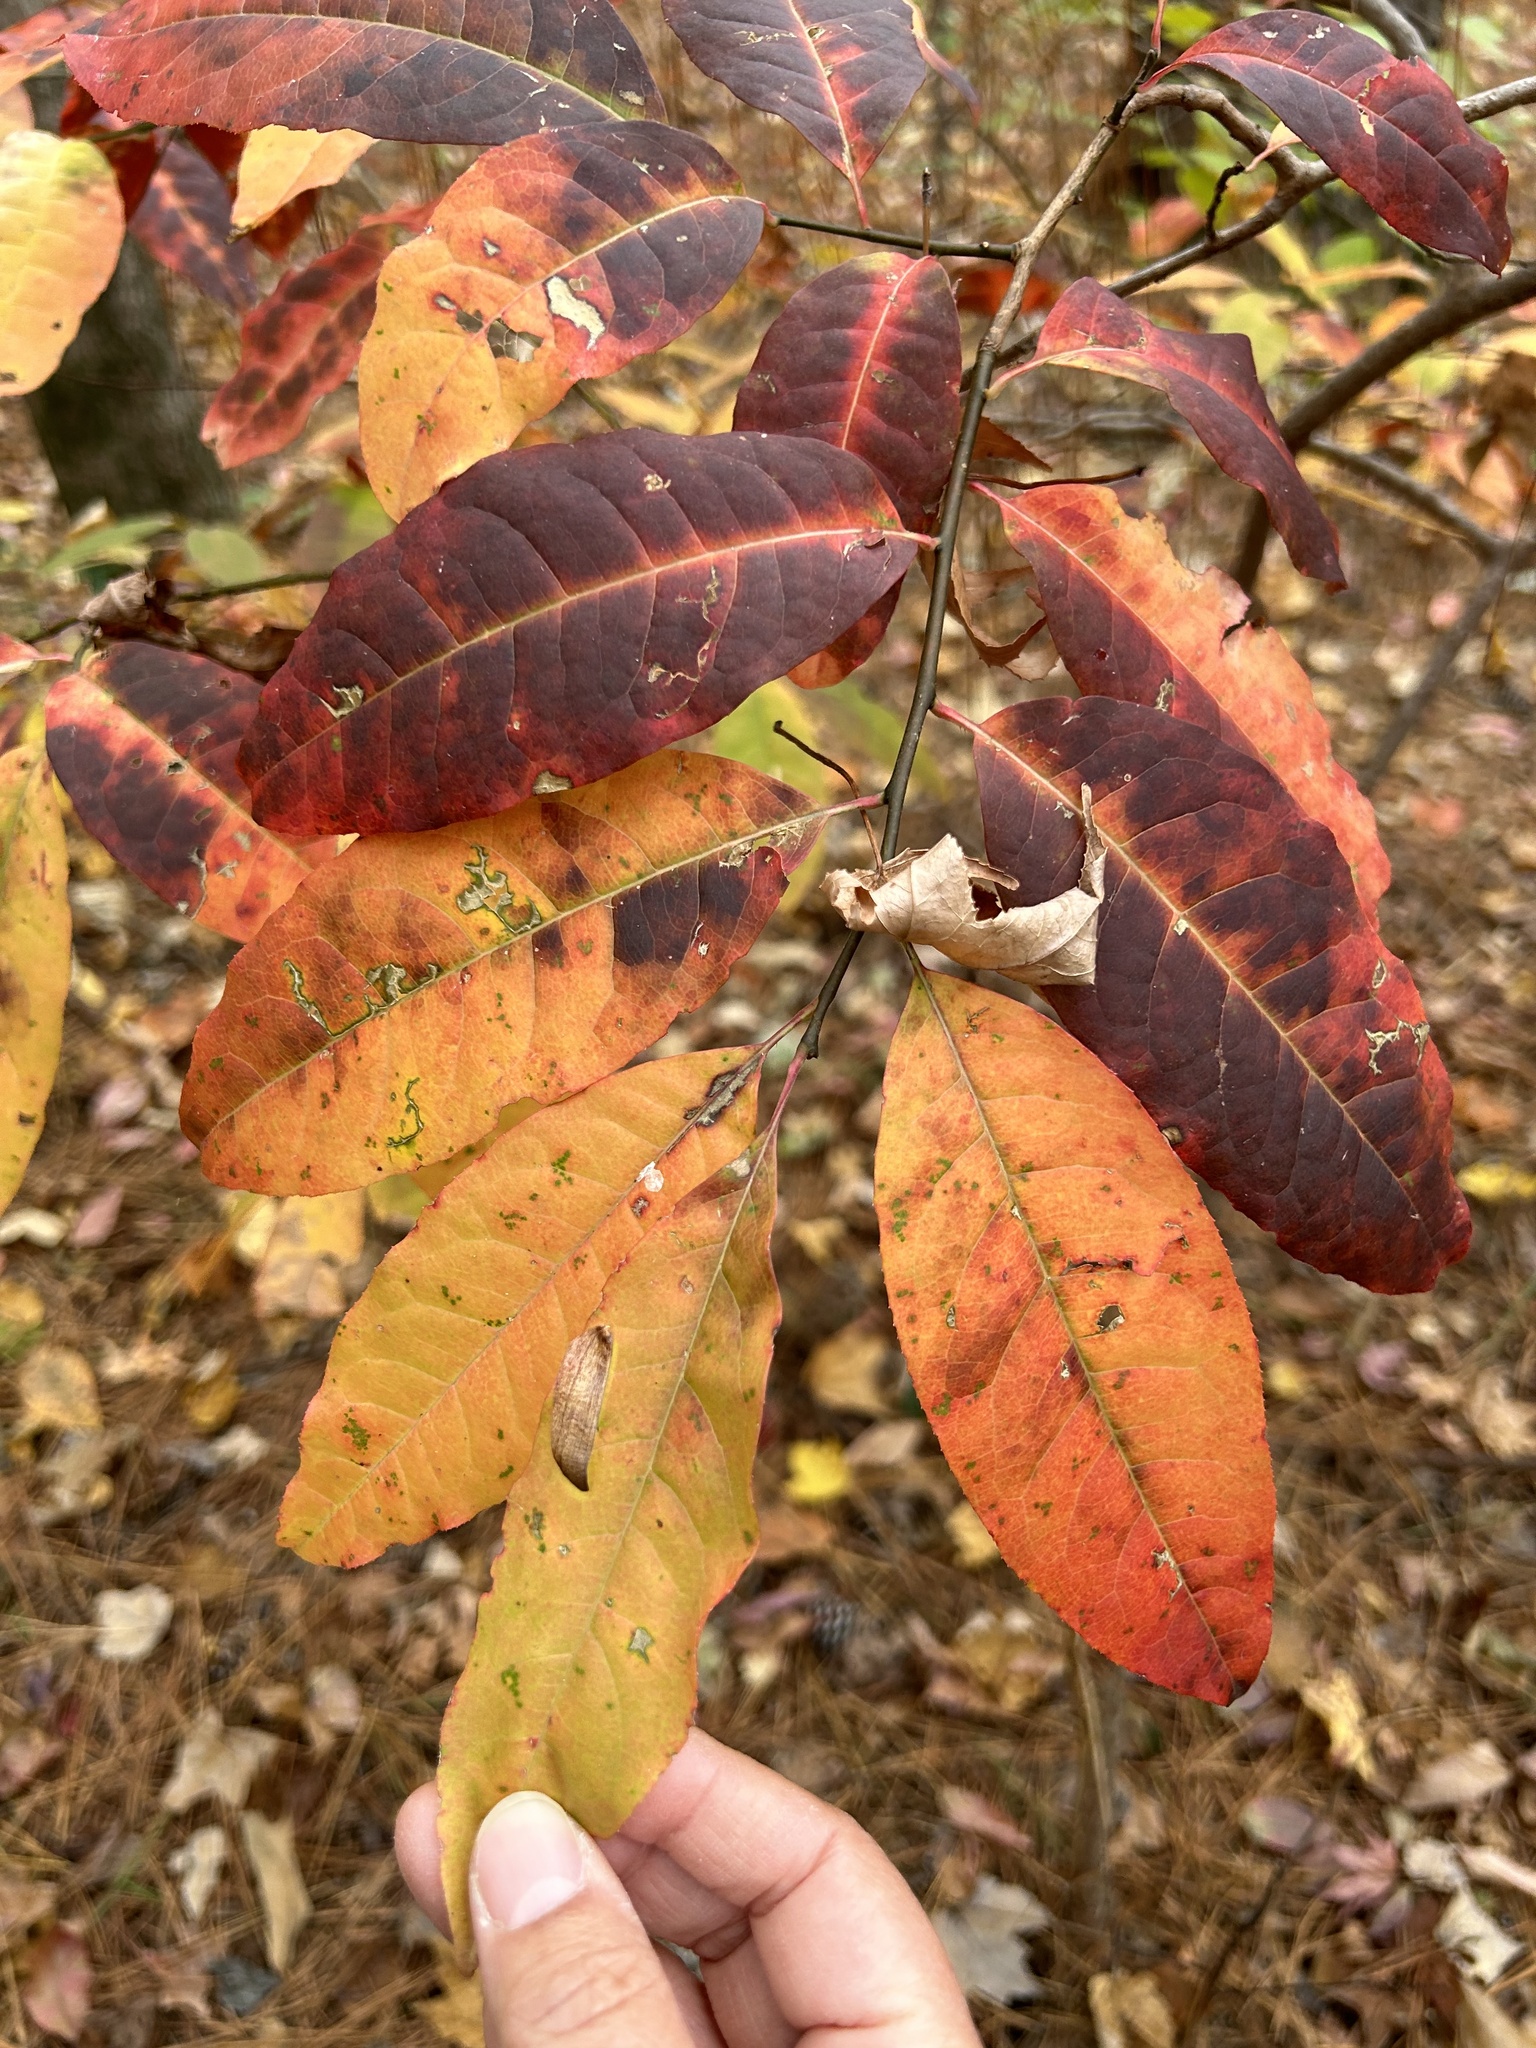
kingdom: Plantae
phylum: Tracheophyta
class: Magnoliopsida
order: Ericales
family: Ericaceae
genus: Oxydendrum
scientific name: Oxydendrum arboreum
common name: Sourwood
